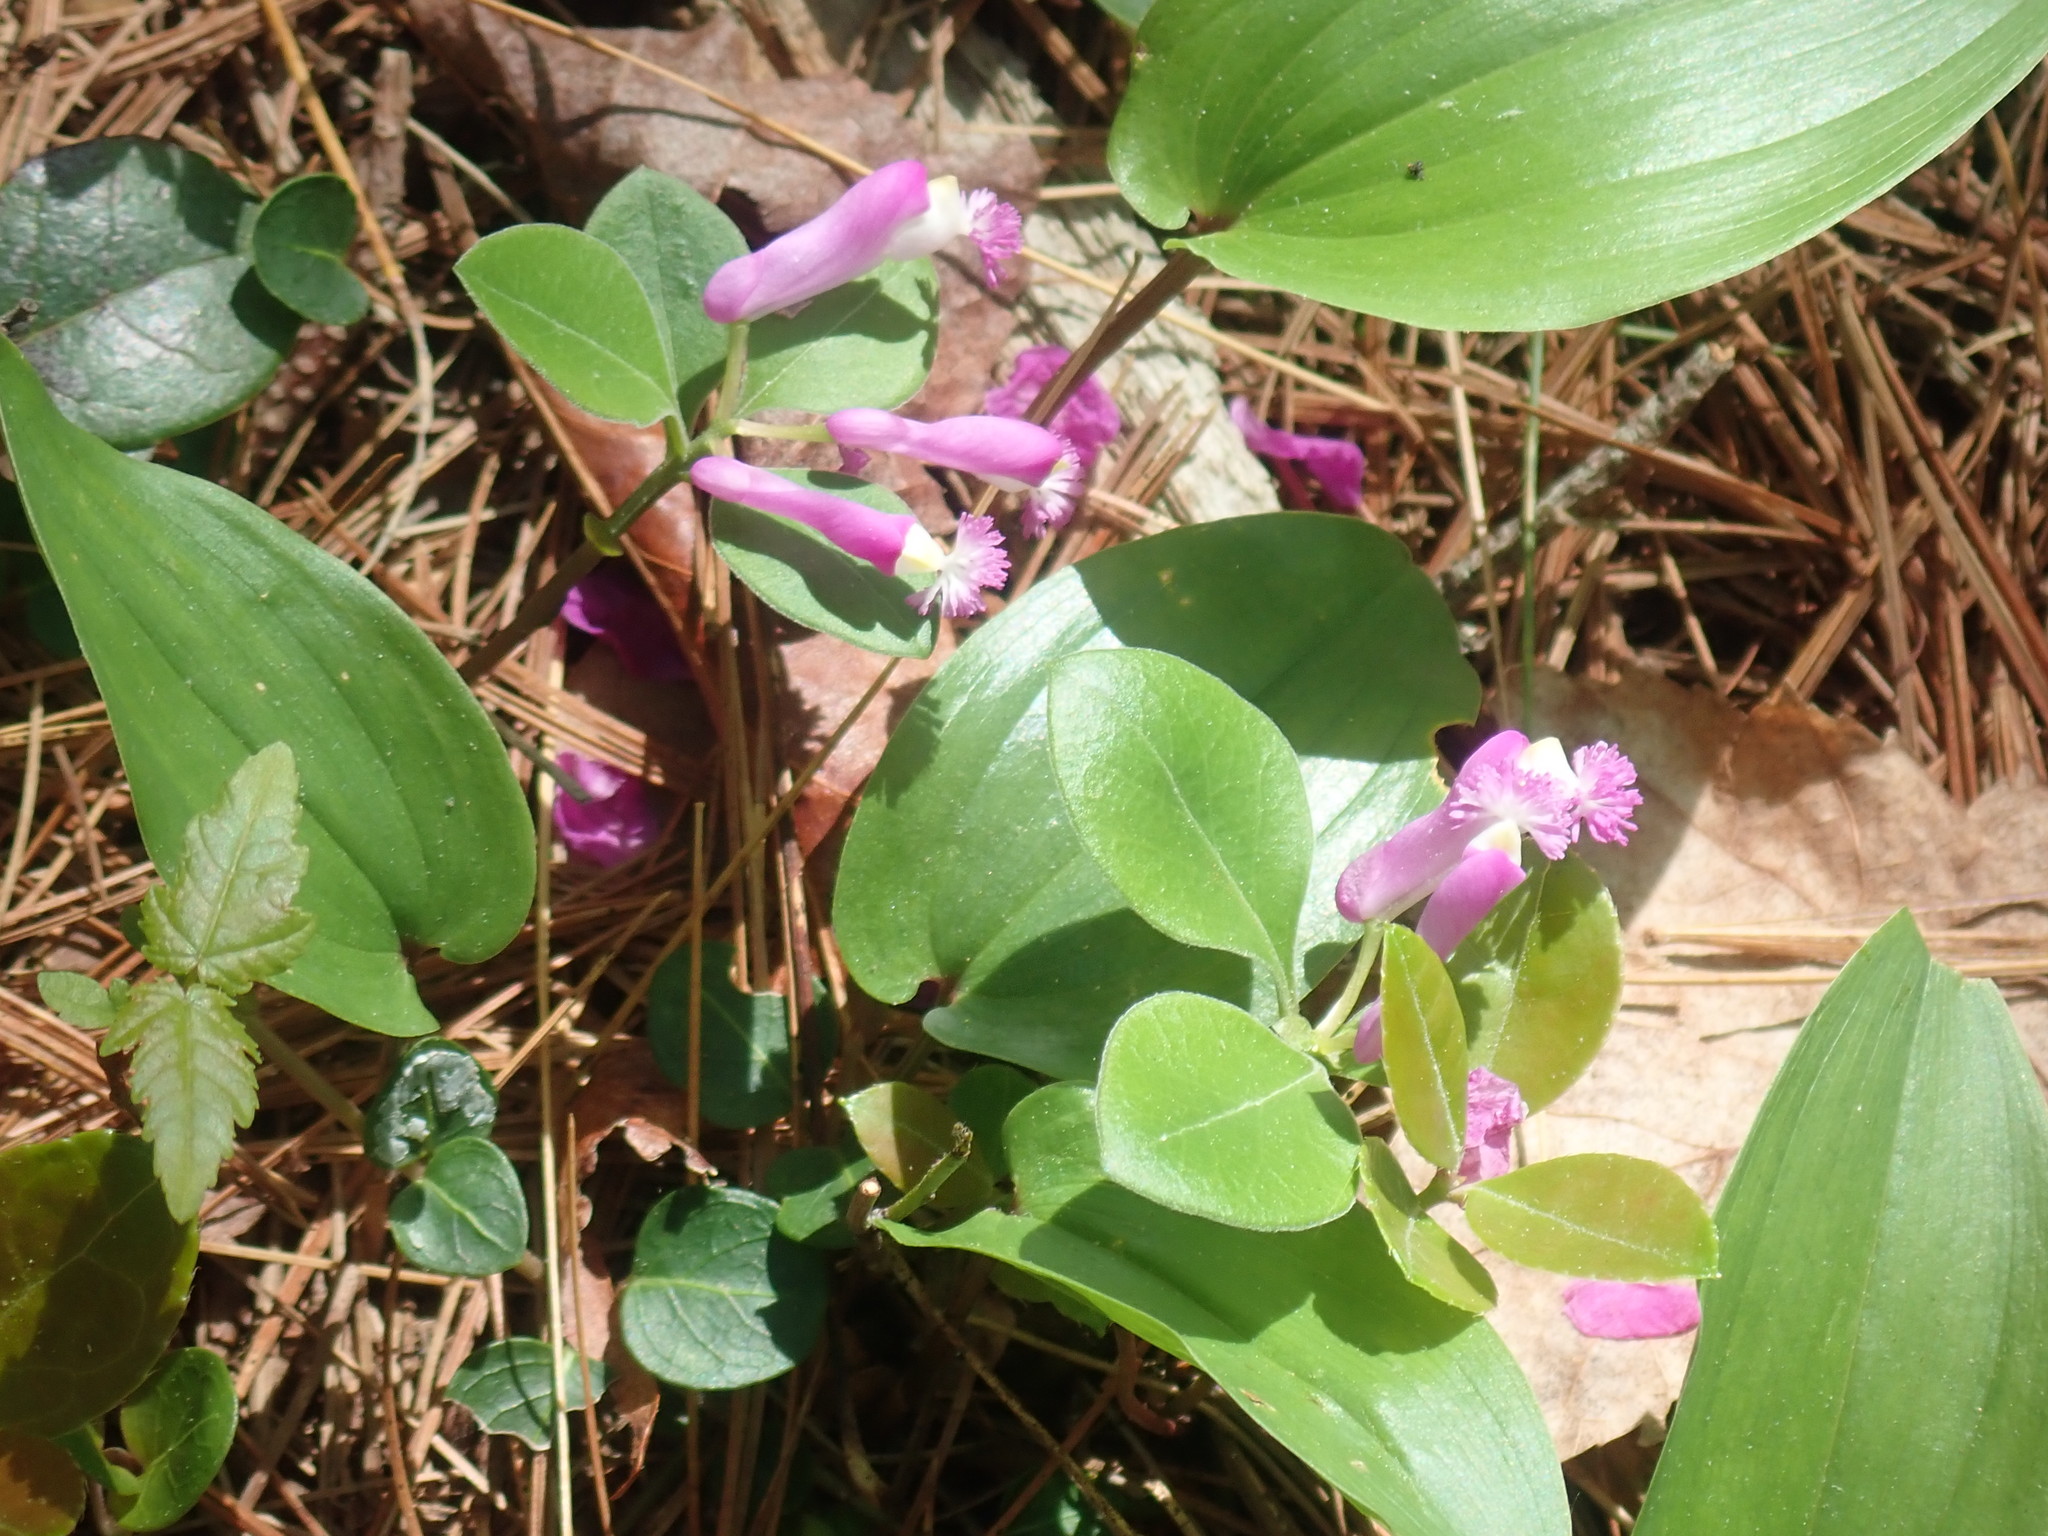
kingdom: Plantae
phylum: Tracheophyta
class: Magnoliopsida
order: Fabales
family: Polygalaceae
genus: Polygaloides
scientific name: Polygaloides paucifolia
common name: Bird-on-the-wing
